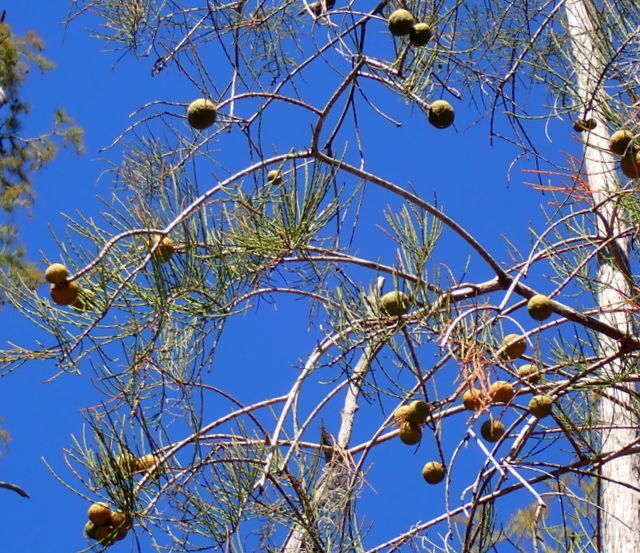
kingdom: Plantae
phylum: Tracheophyta
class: Pinopsida
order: Pinales
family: Cupressaceae
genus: Taxodium
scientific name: Taxodium distichum
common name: Bald cypress
